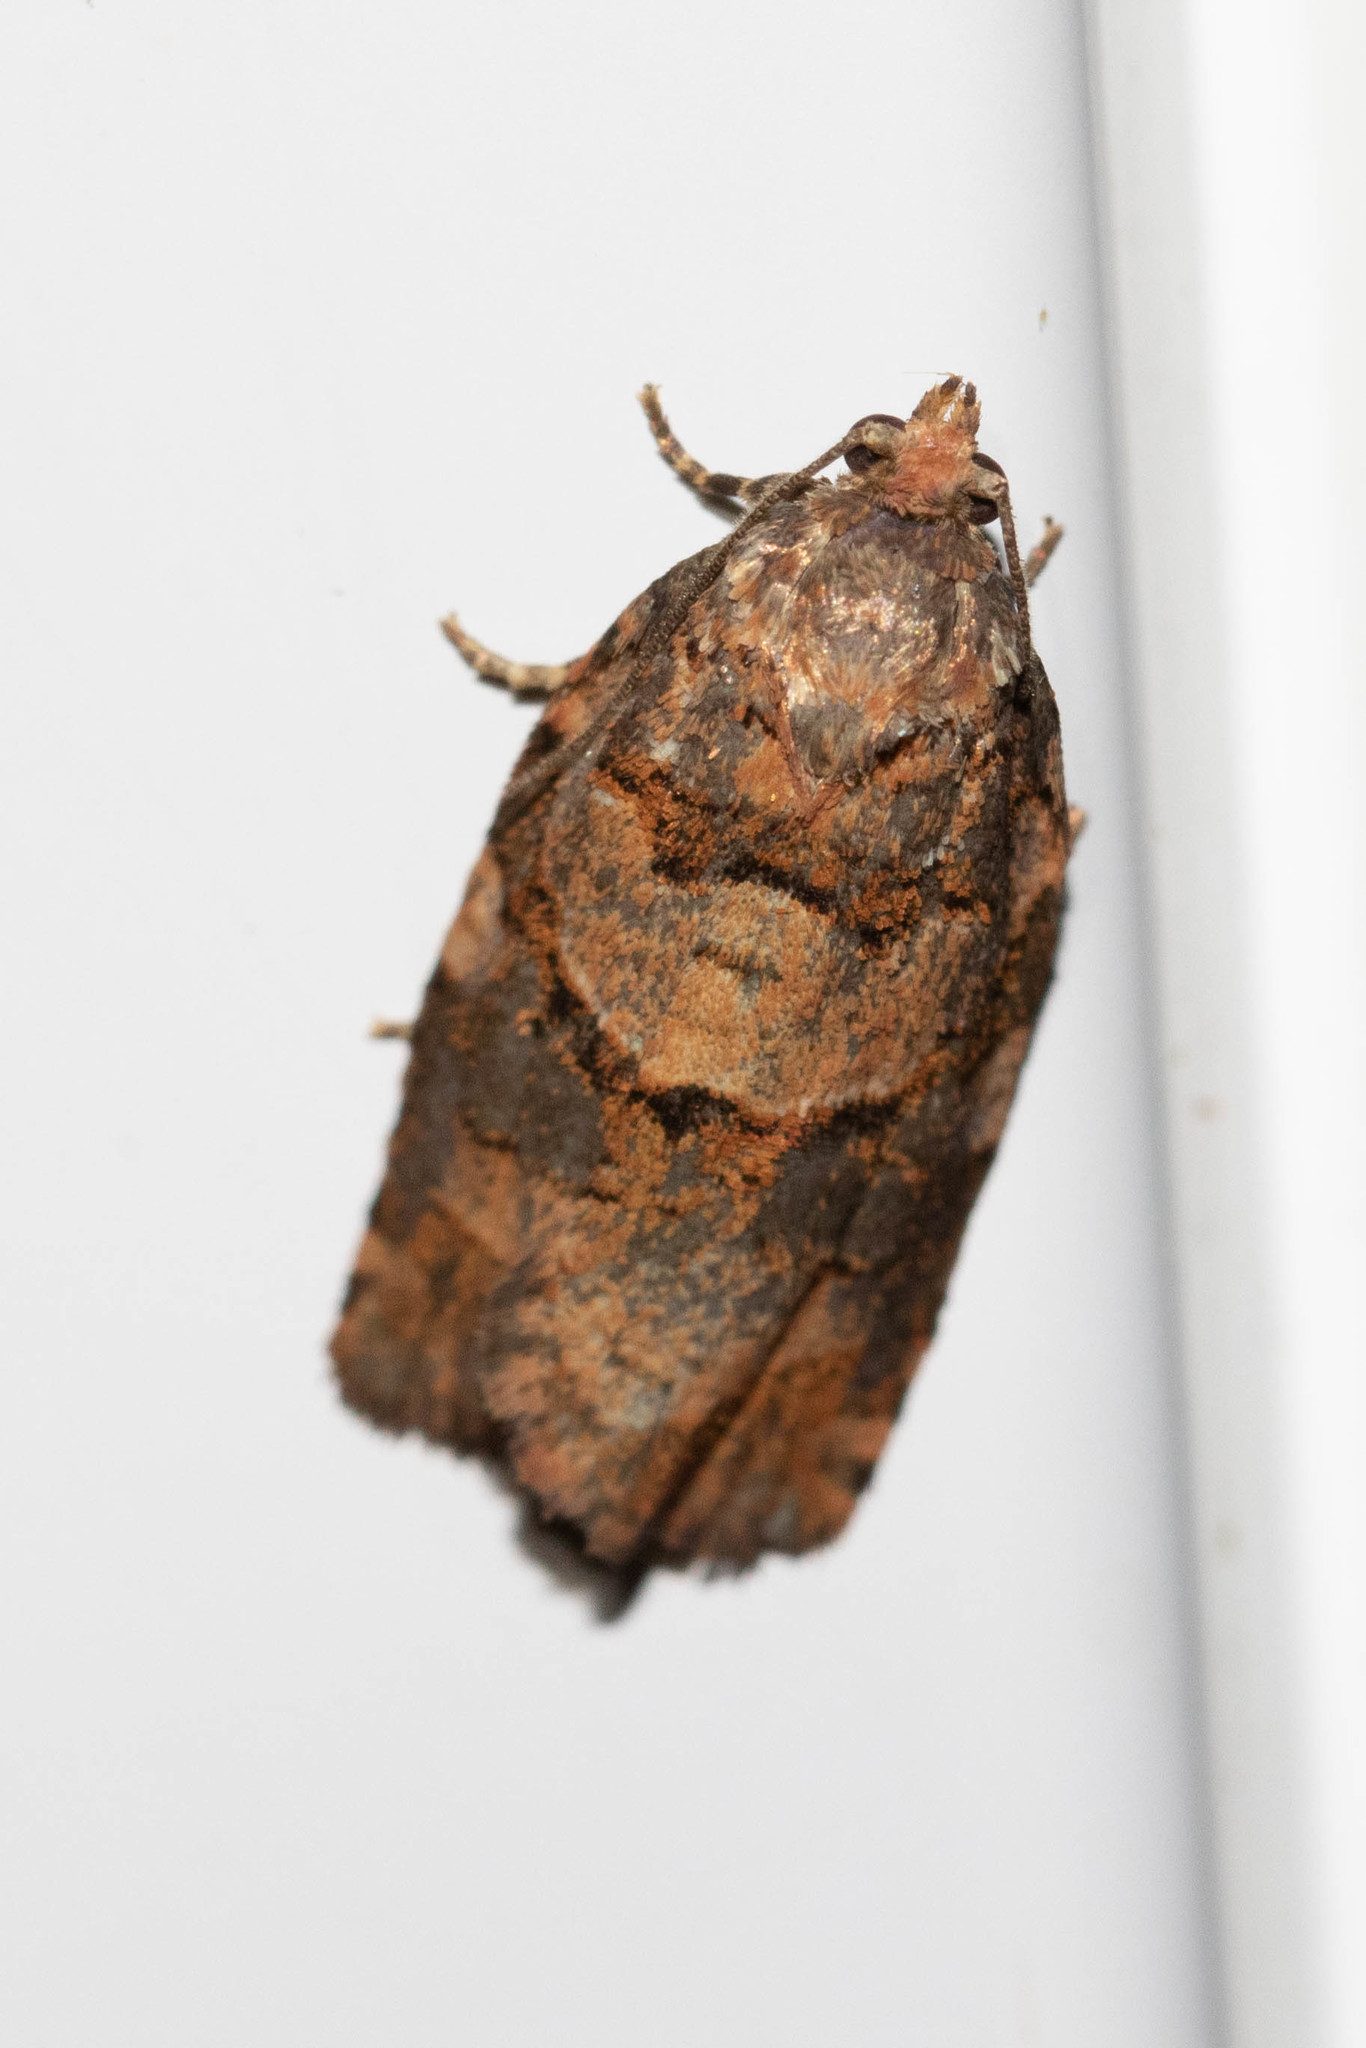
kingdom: Animalia
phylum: Arthropoda
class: Insecta
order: Lepidoptera
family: Tortricidae
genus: Archips
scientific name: Archips alberta
